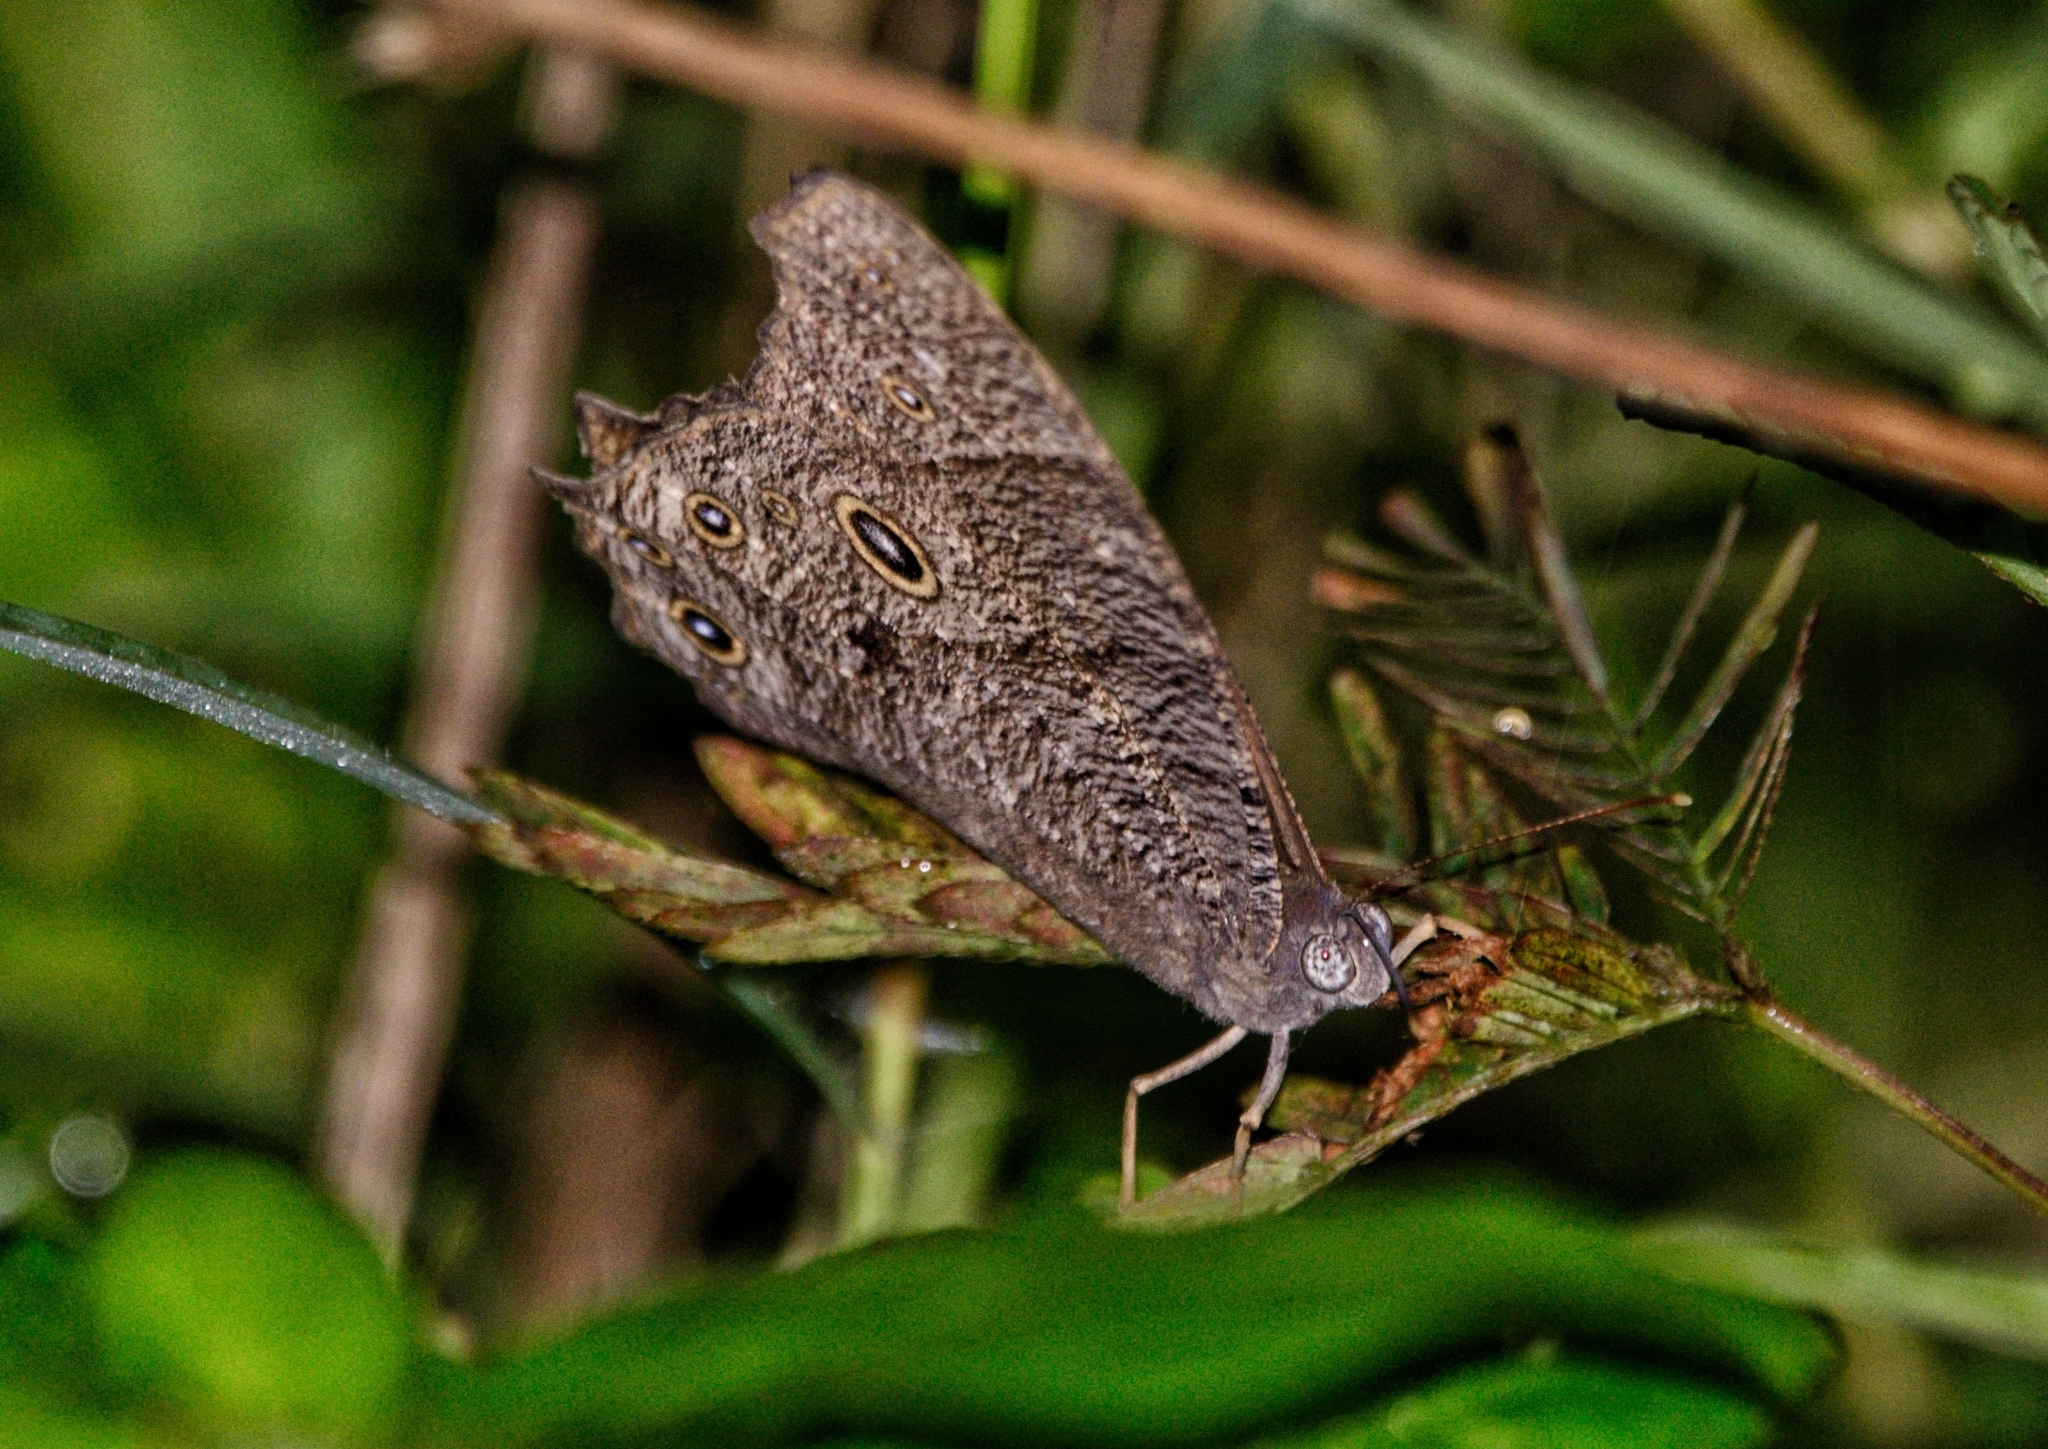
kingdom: Animalia
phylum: Arthropoda
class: Insecta
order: Lepidoptera
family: Nymphalidae
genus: Melanitis
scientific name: Melanitis leda
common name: Twilight brown
